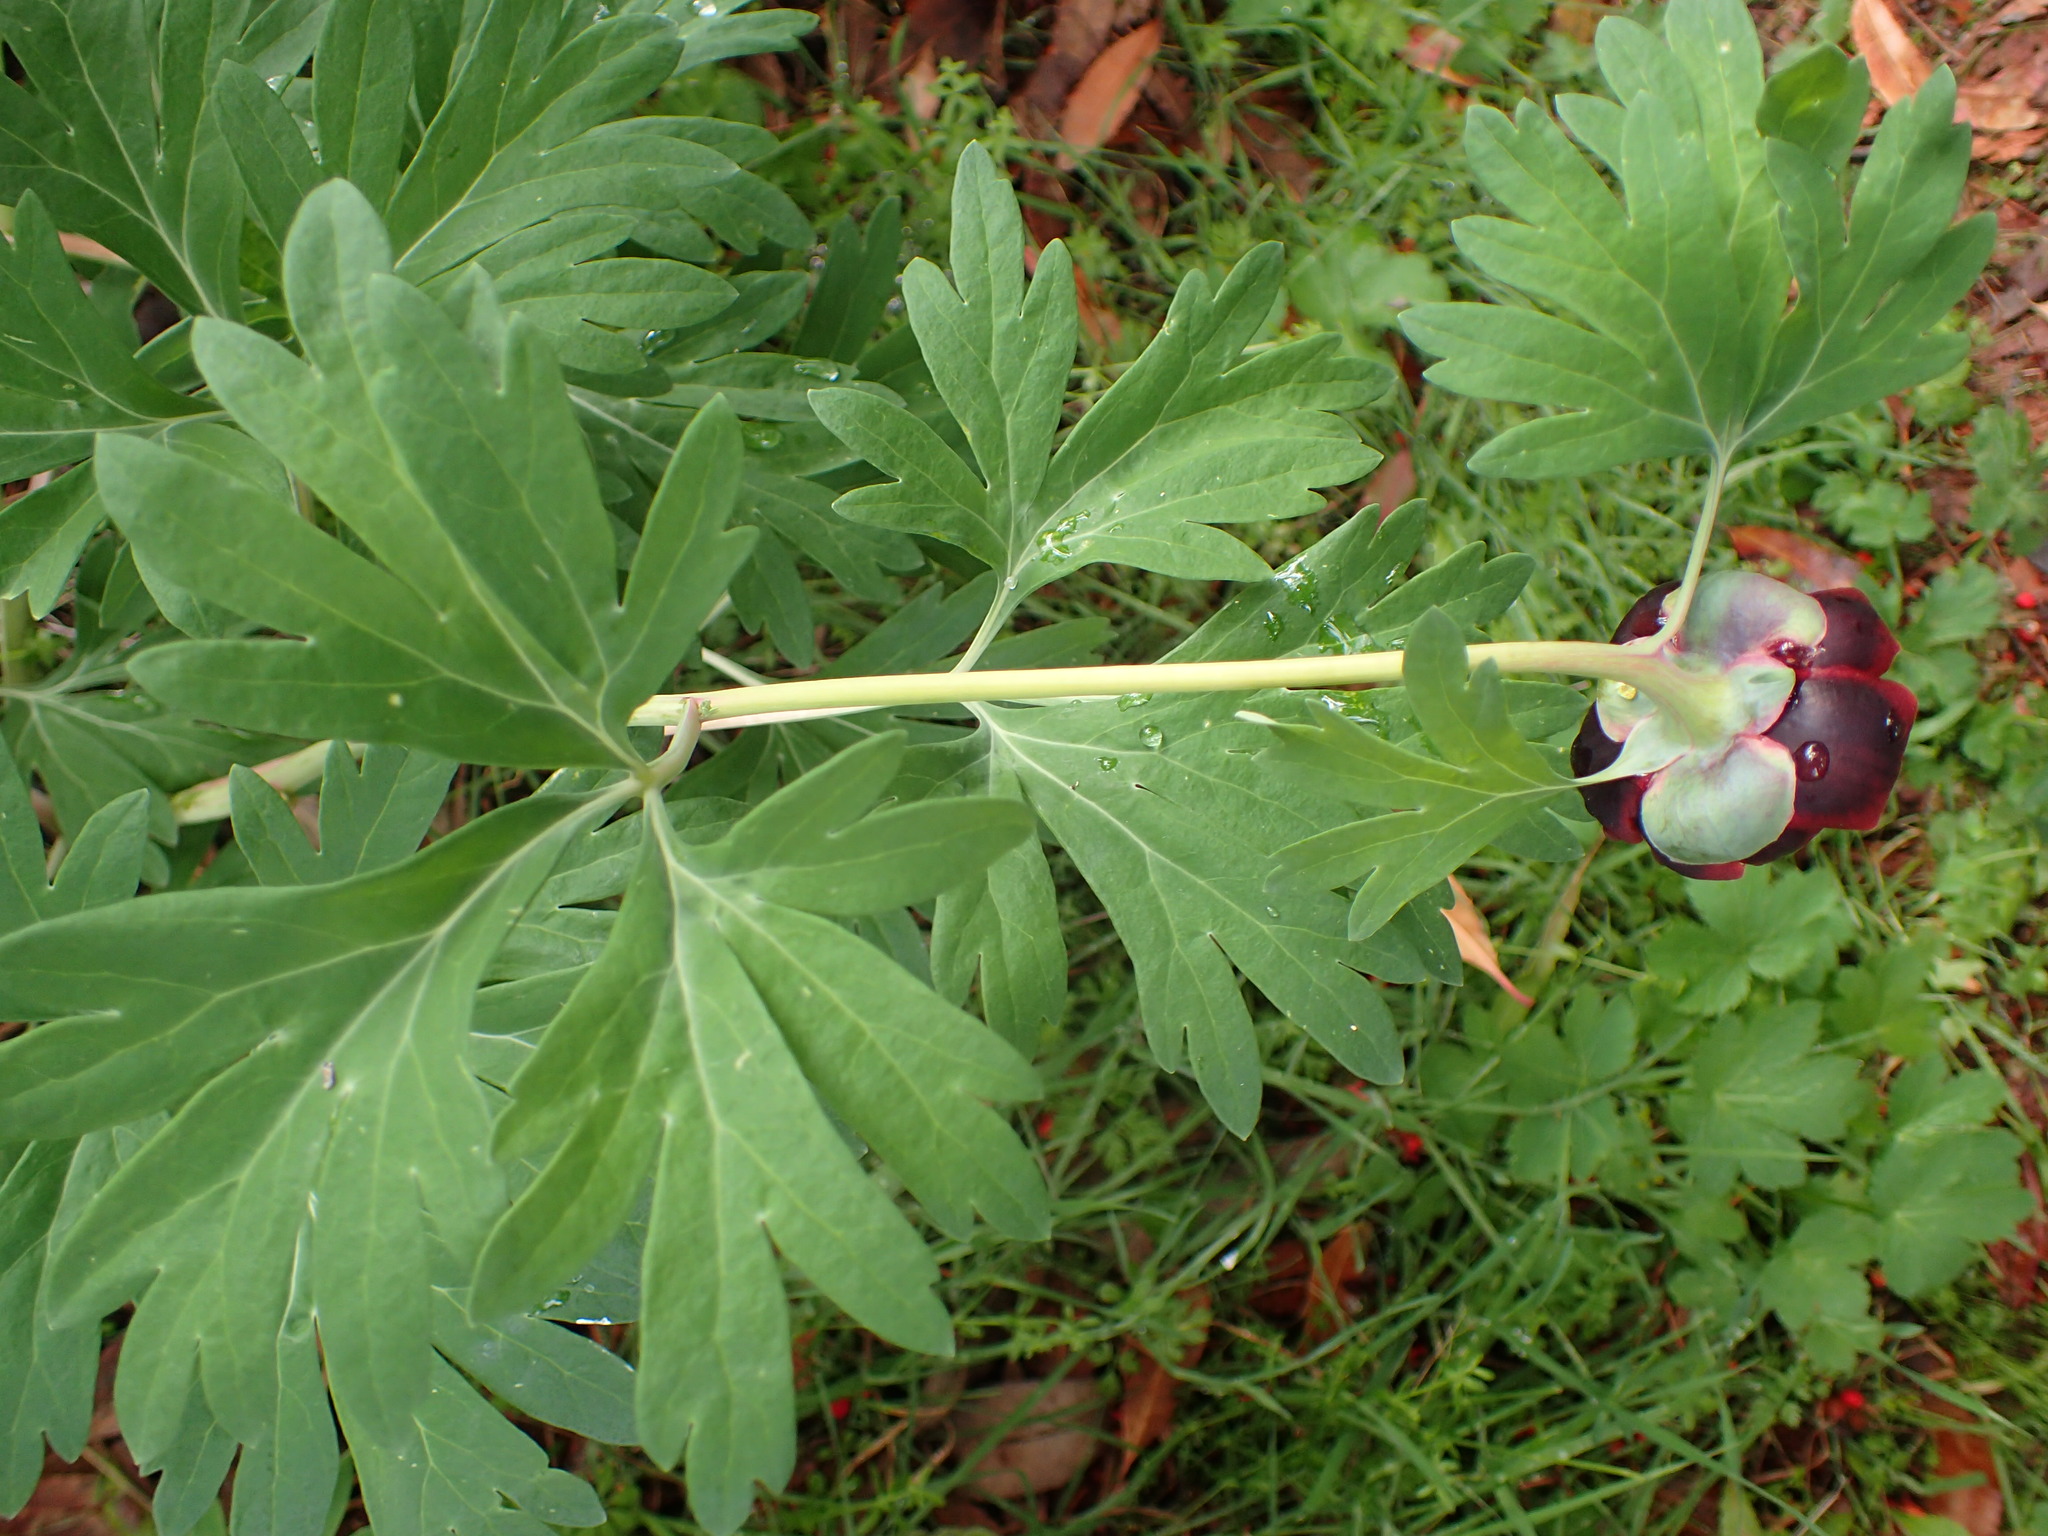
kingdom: Plantae
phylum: Tracheophyta
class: Magnoliopsida
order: Saxifragales
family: Paeoniaceae
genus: Paeonia
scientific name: Paeonia californica
